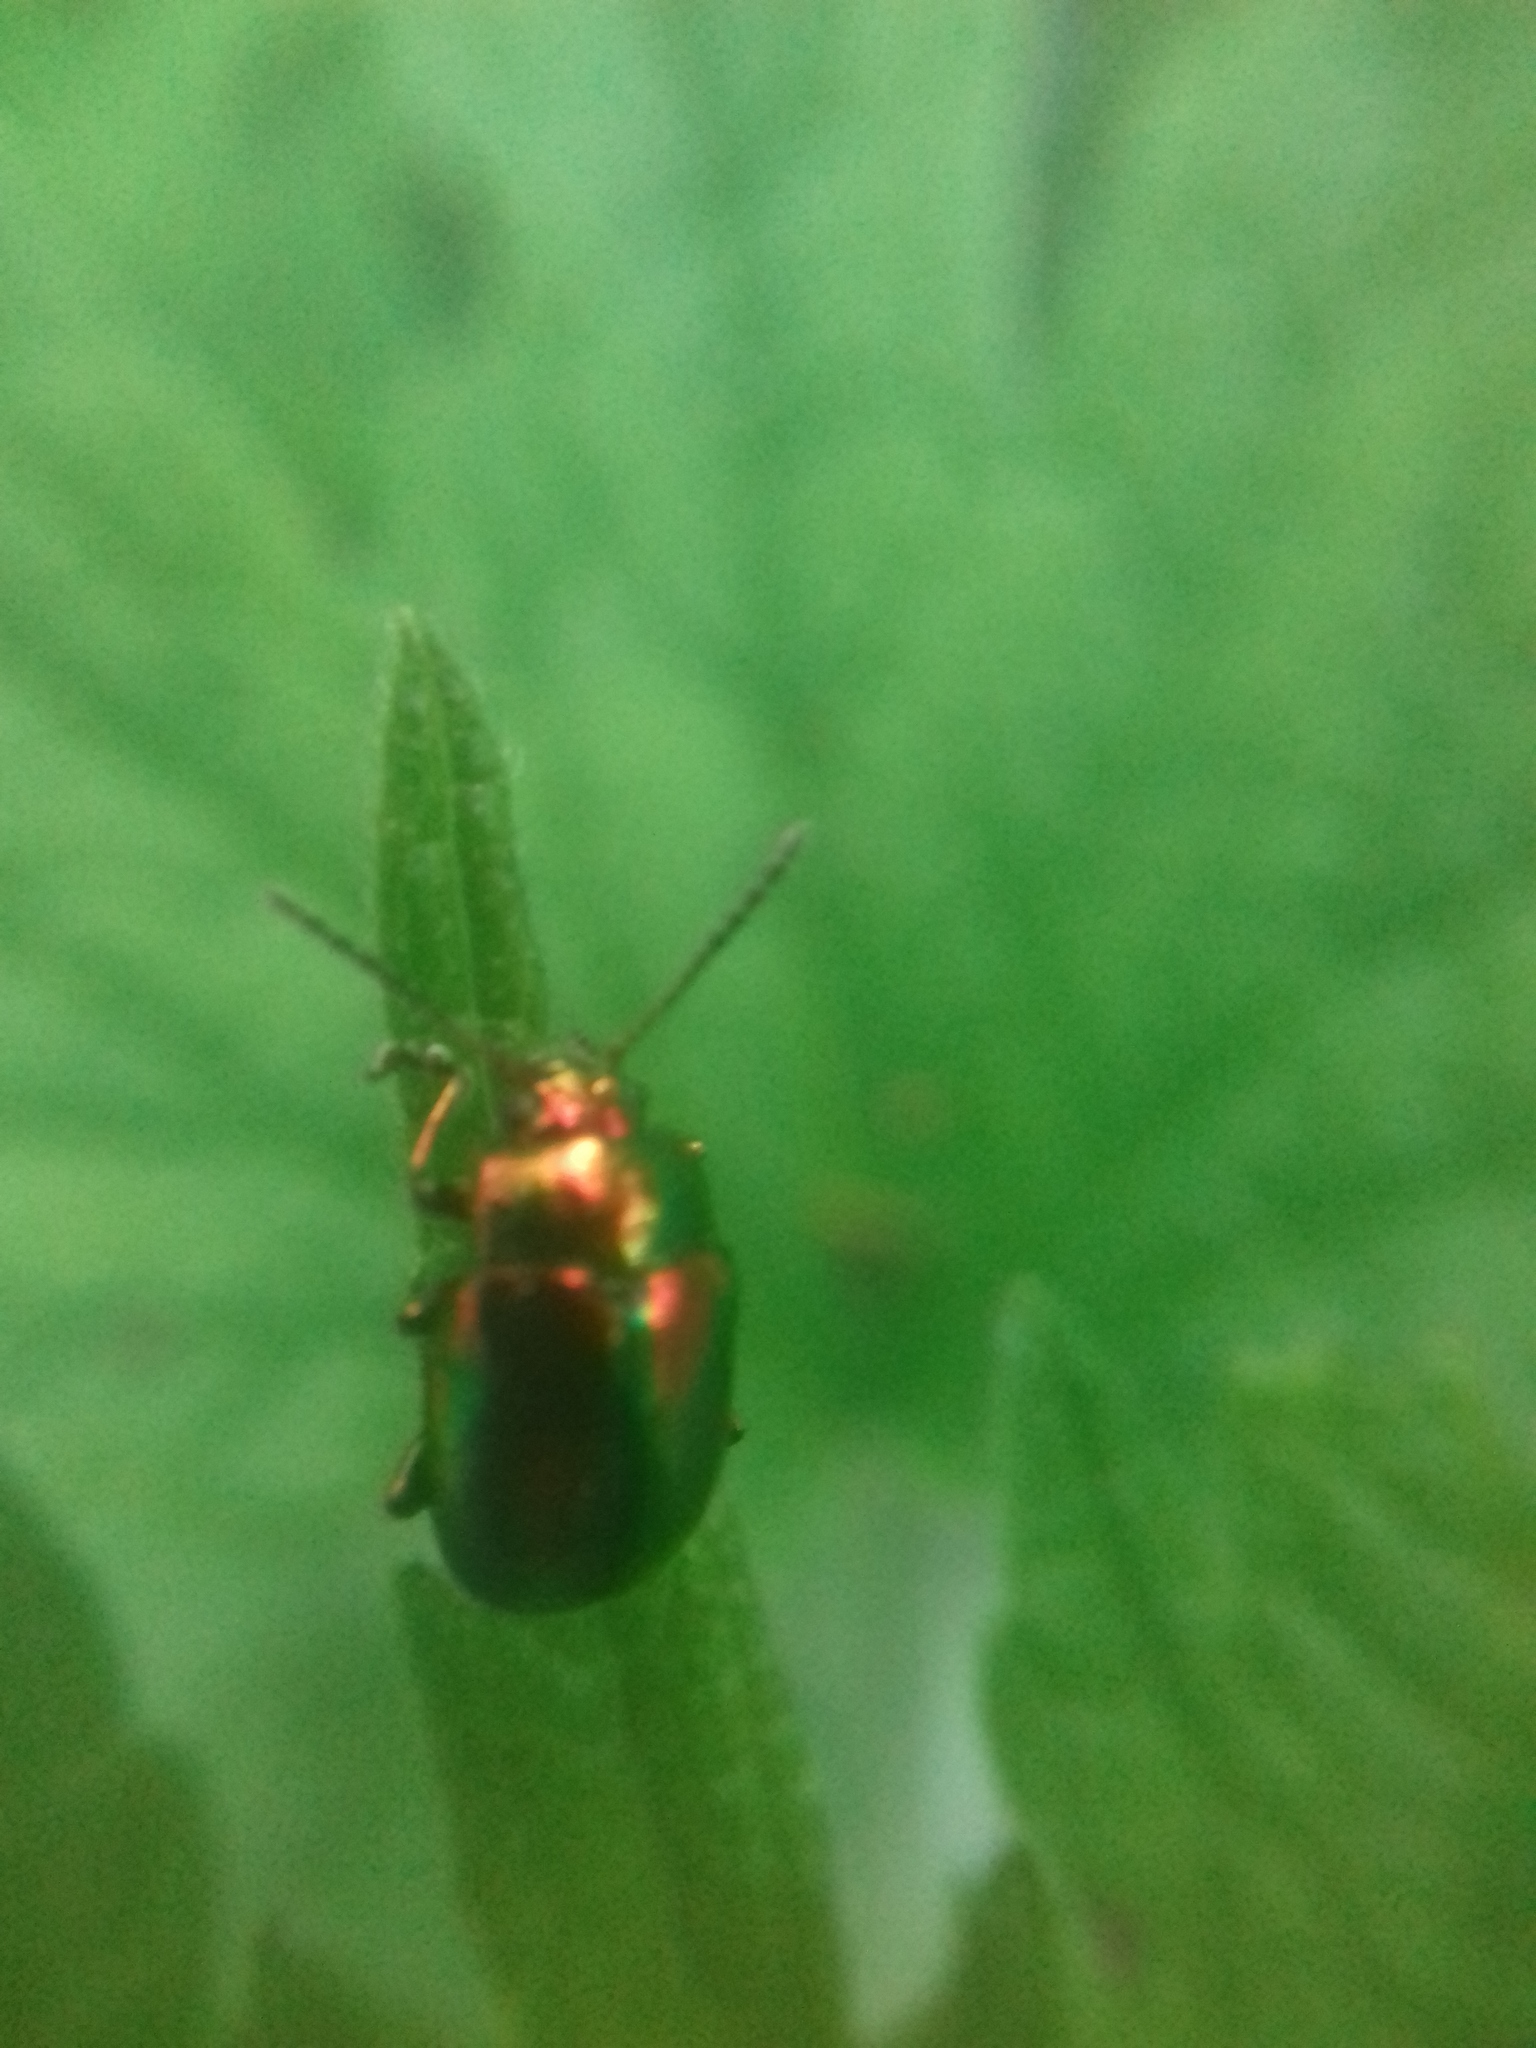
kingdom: Animalia
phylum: Arthropoda
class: Insecta
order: Coleoptera
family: Chrysomelidae
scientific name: Chrysomelidae
